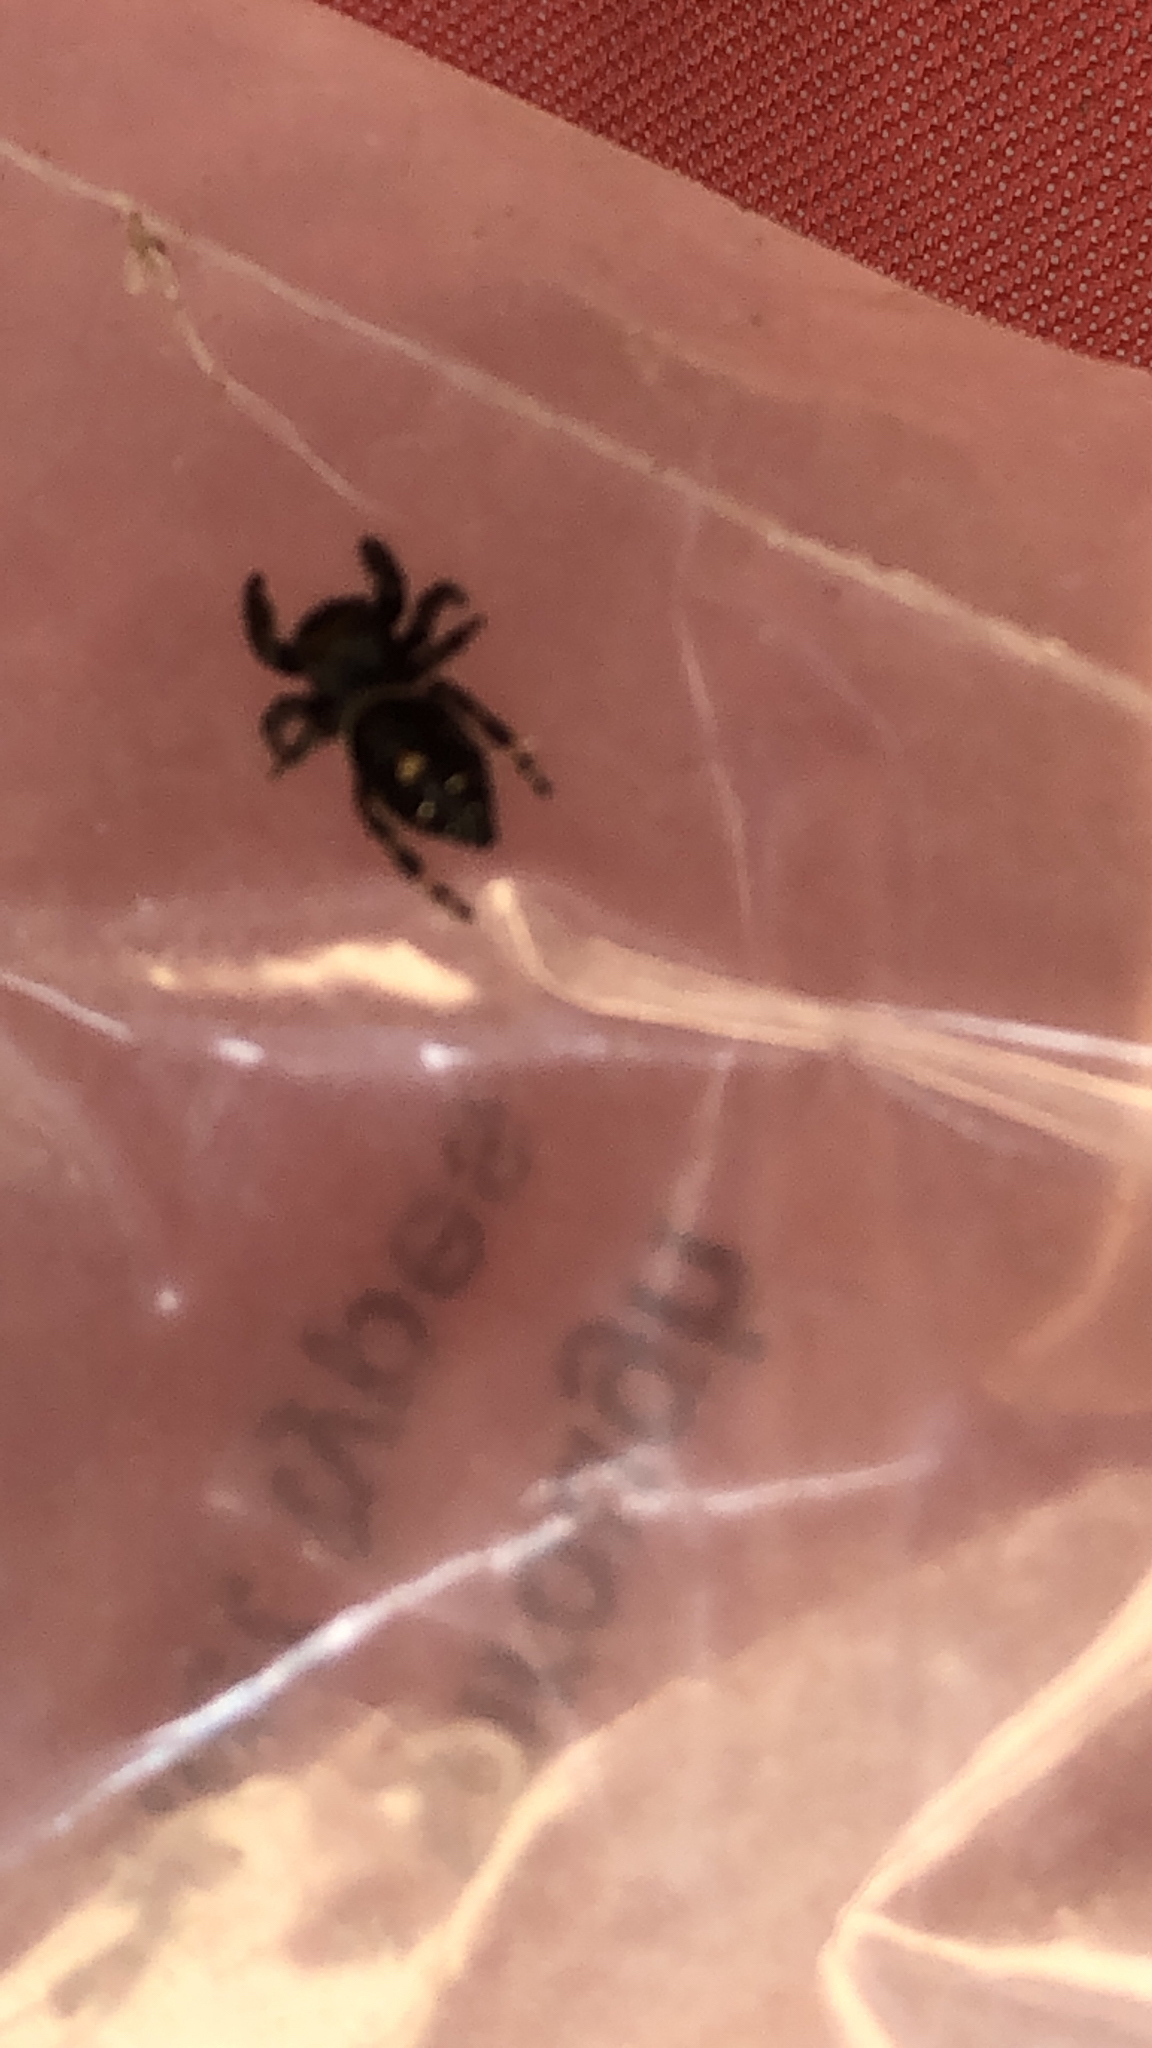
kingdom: Animalia
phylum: Arthropoda
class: Arachnida
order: Araneae
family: Salticidae
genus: Phidippus
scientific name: Phidippus audax
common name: Bold jumper
